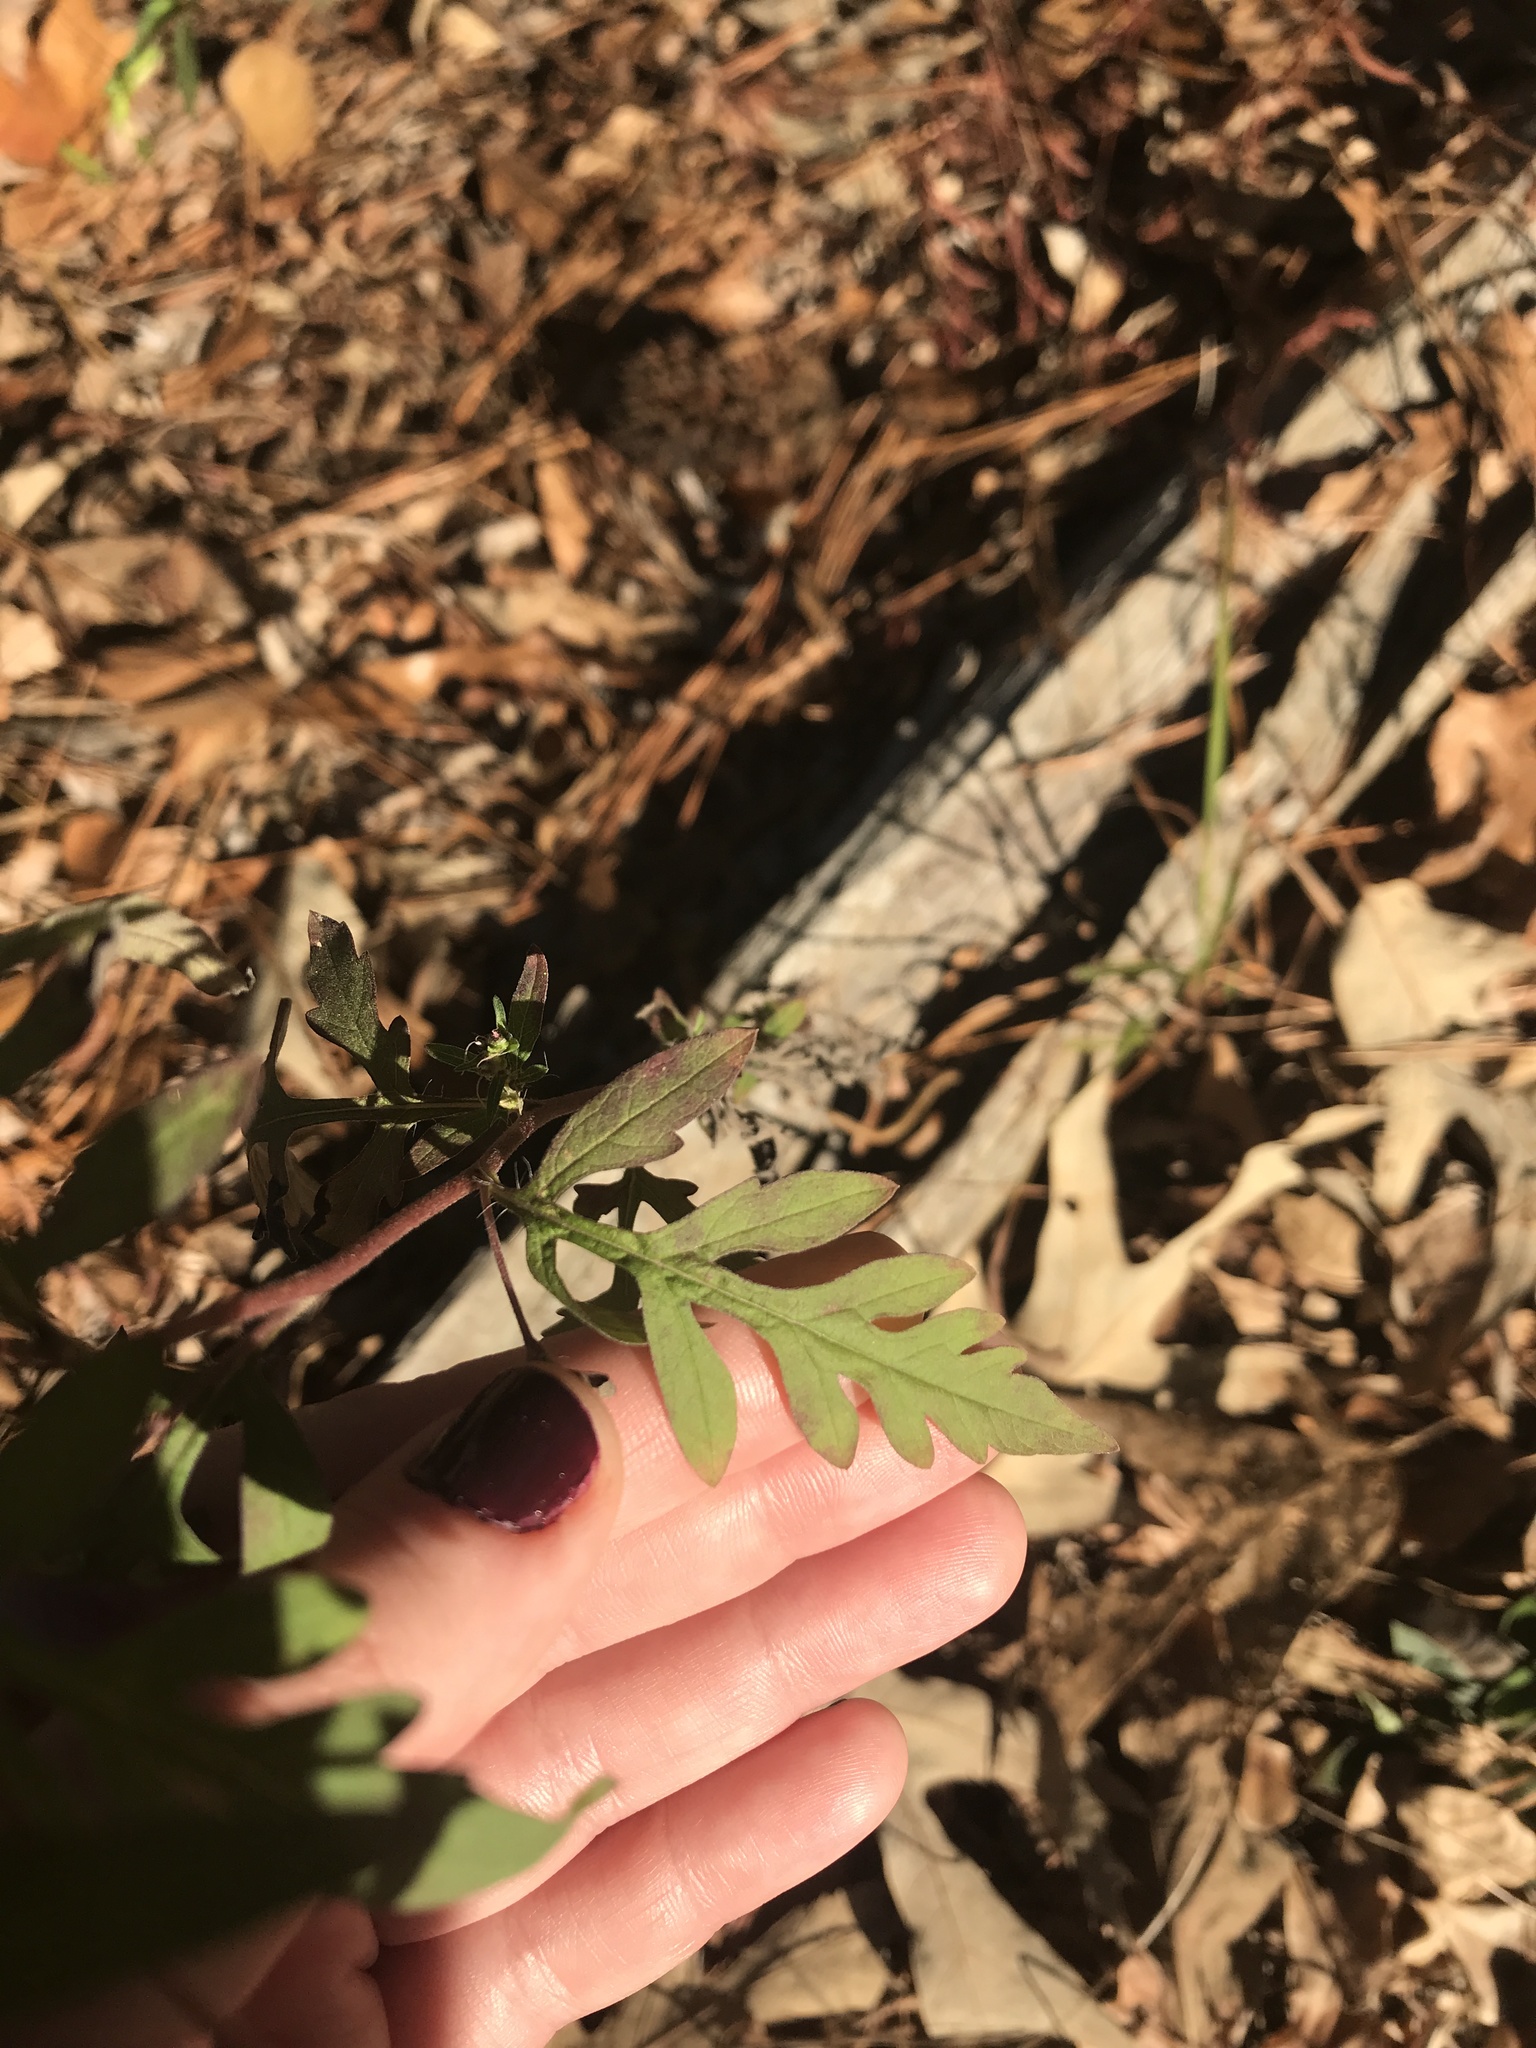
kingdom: Plantae
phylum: Tracheophyta
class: Magnoliopsida
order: Asterales
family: Asteraceae
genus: Ambrosia
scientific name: Ambrosia artemisiifolia
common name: Annual ragweed
